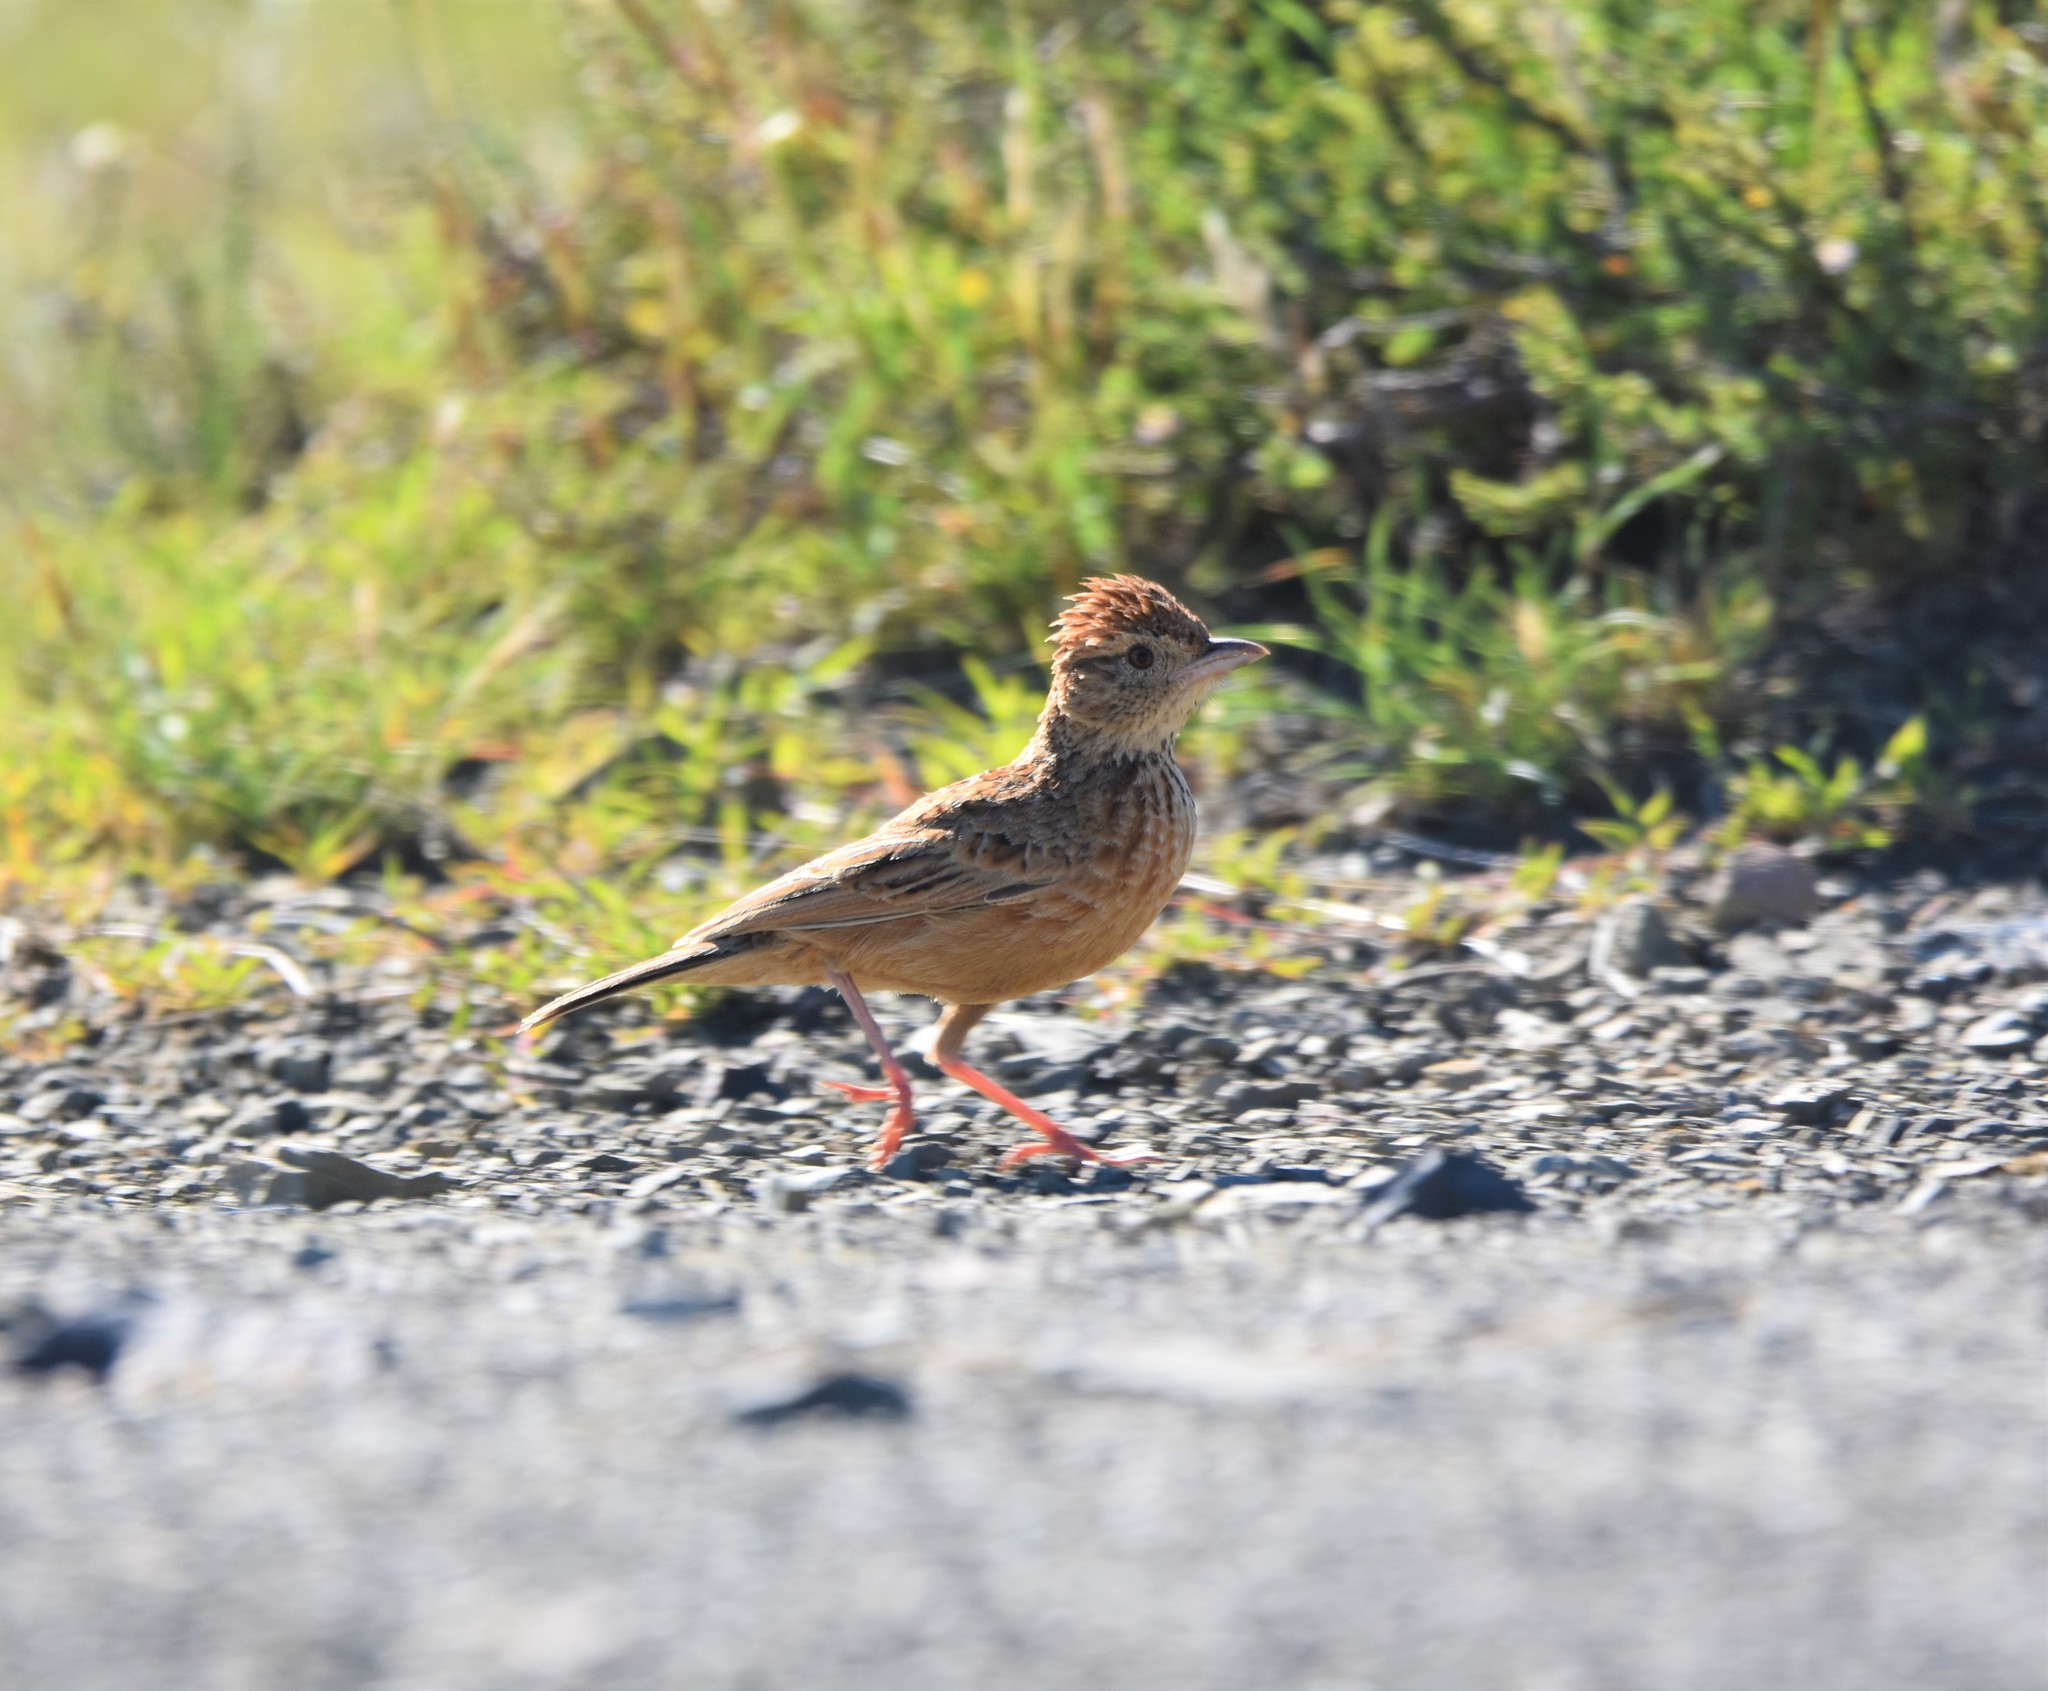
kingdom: Animalia
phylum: Chordata
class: Aves
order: Passeriformes
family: Alaudidae
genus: Mirafra
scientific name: Mirafra fasciolata
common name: Eastern clapper lark
